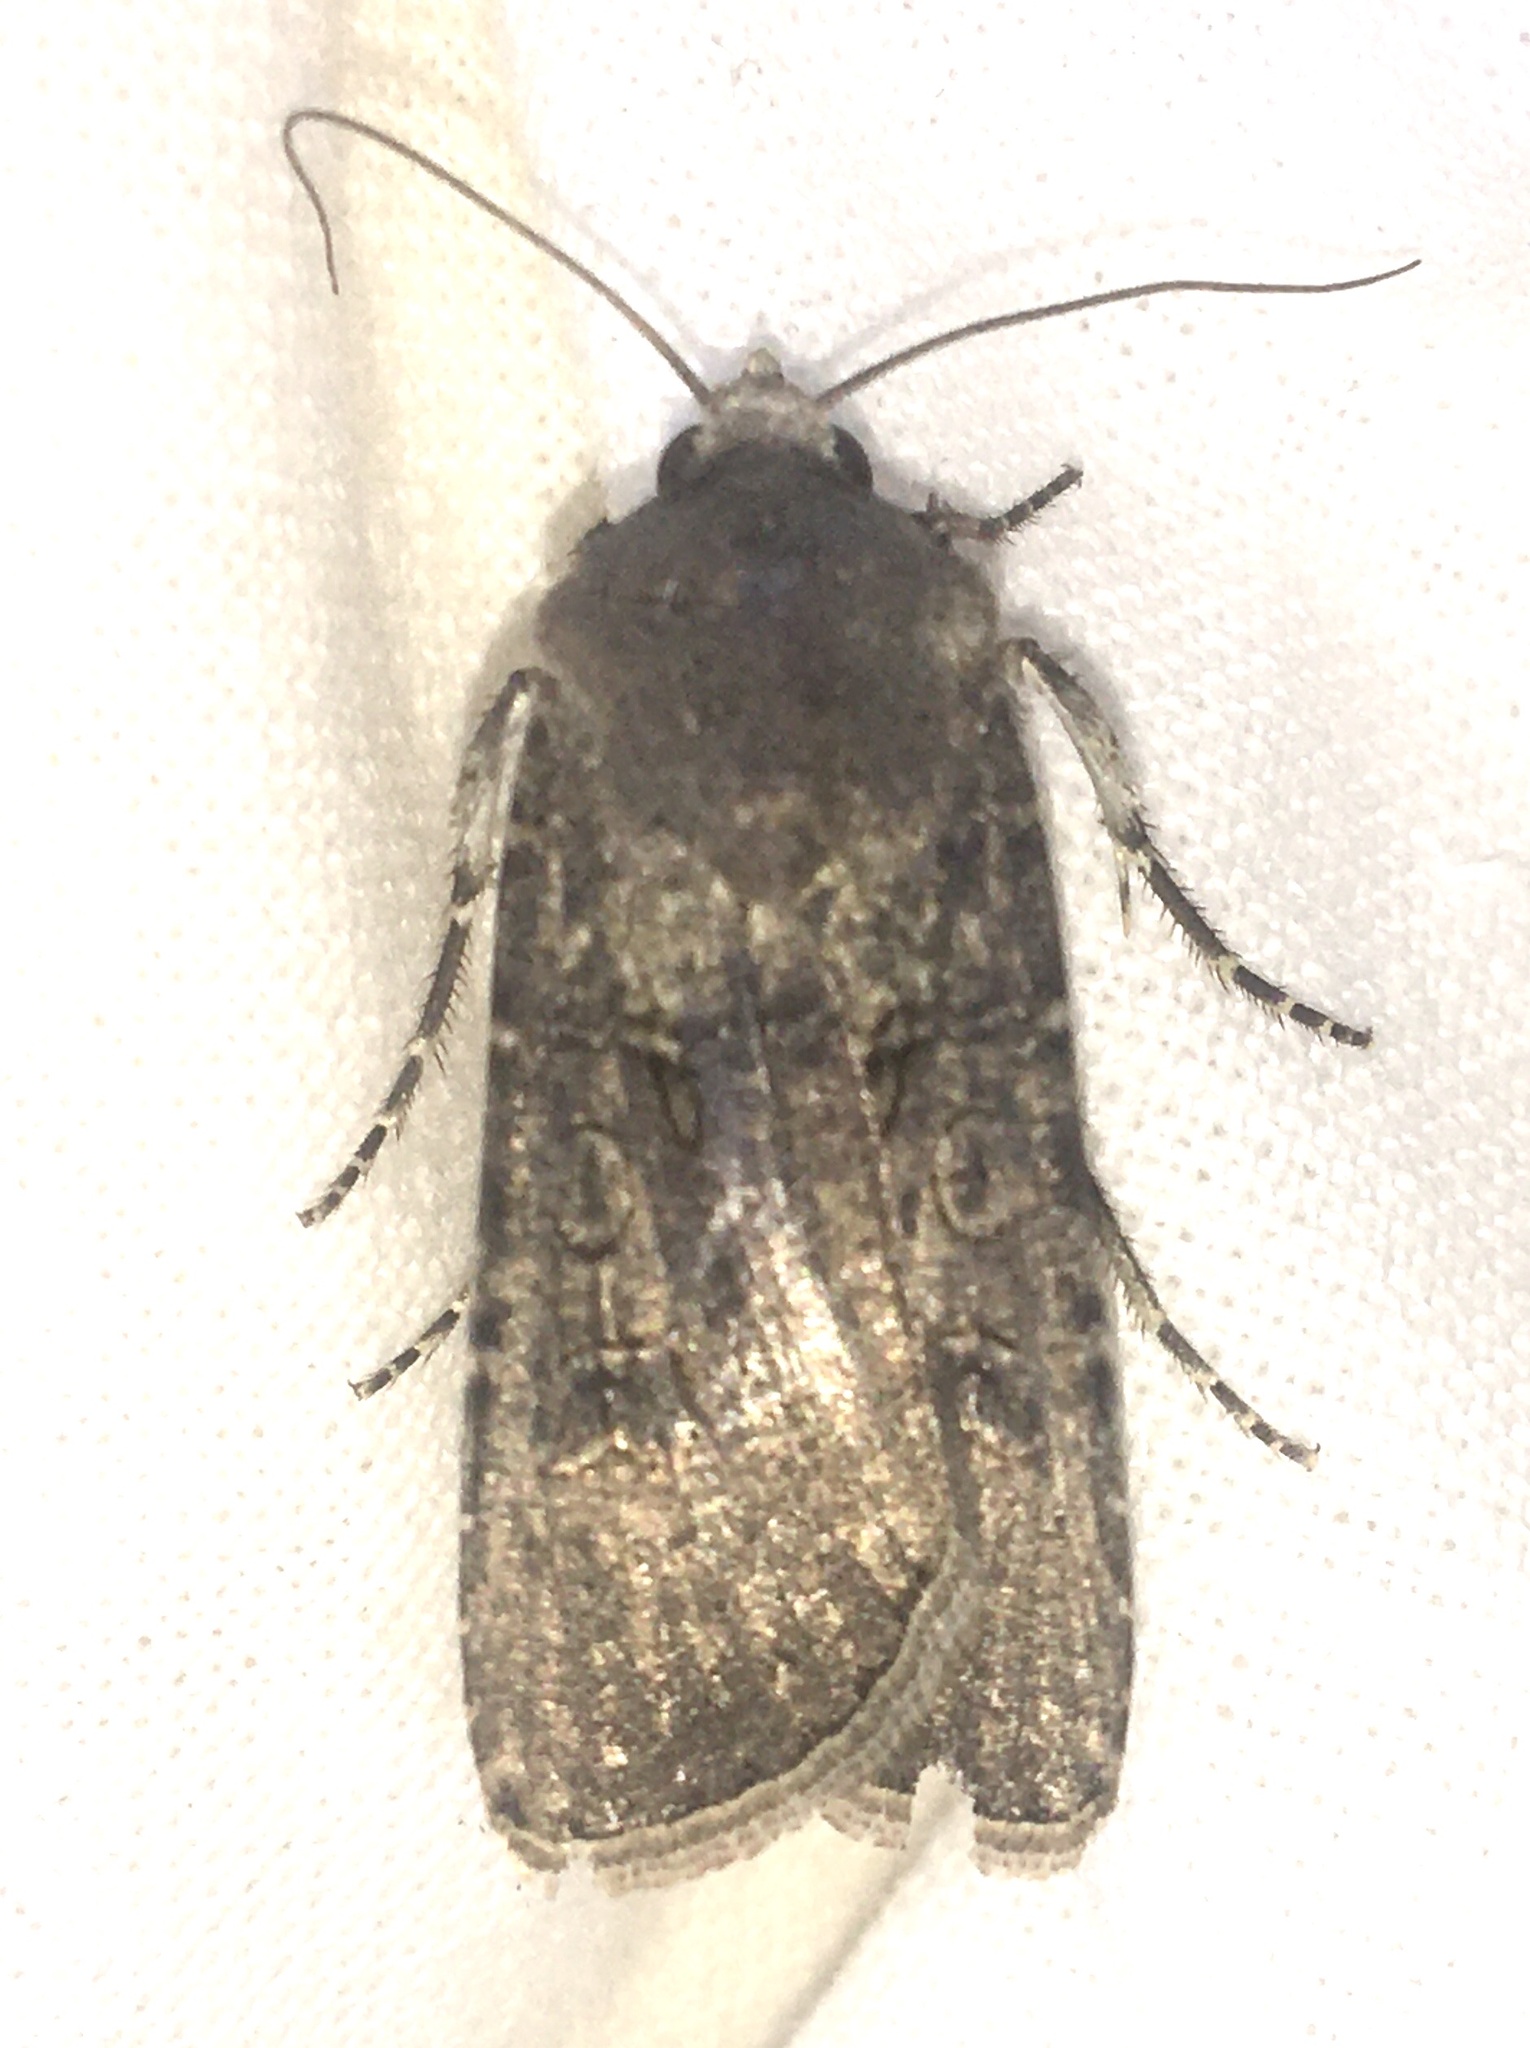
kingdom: Animalia
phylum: Arthropoda
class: Insecta
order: Lepidoptera
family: Noctuidae
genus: Agrotis
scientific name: Agrotis segetum
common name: Turnip moth
